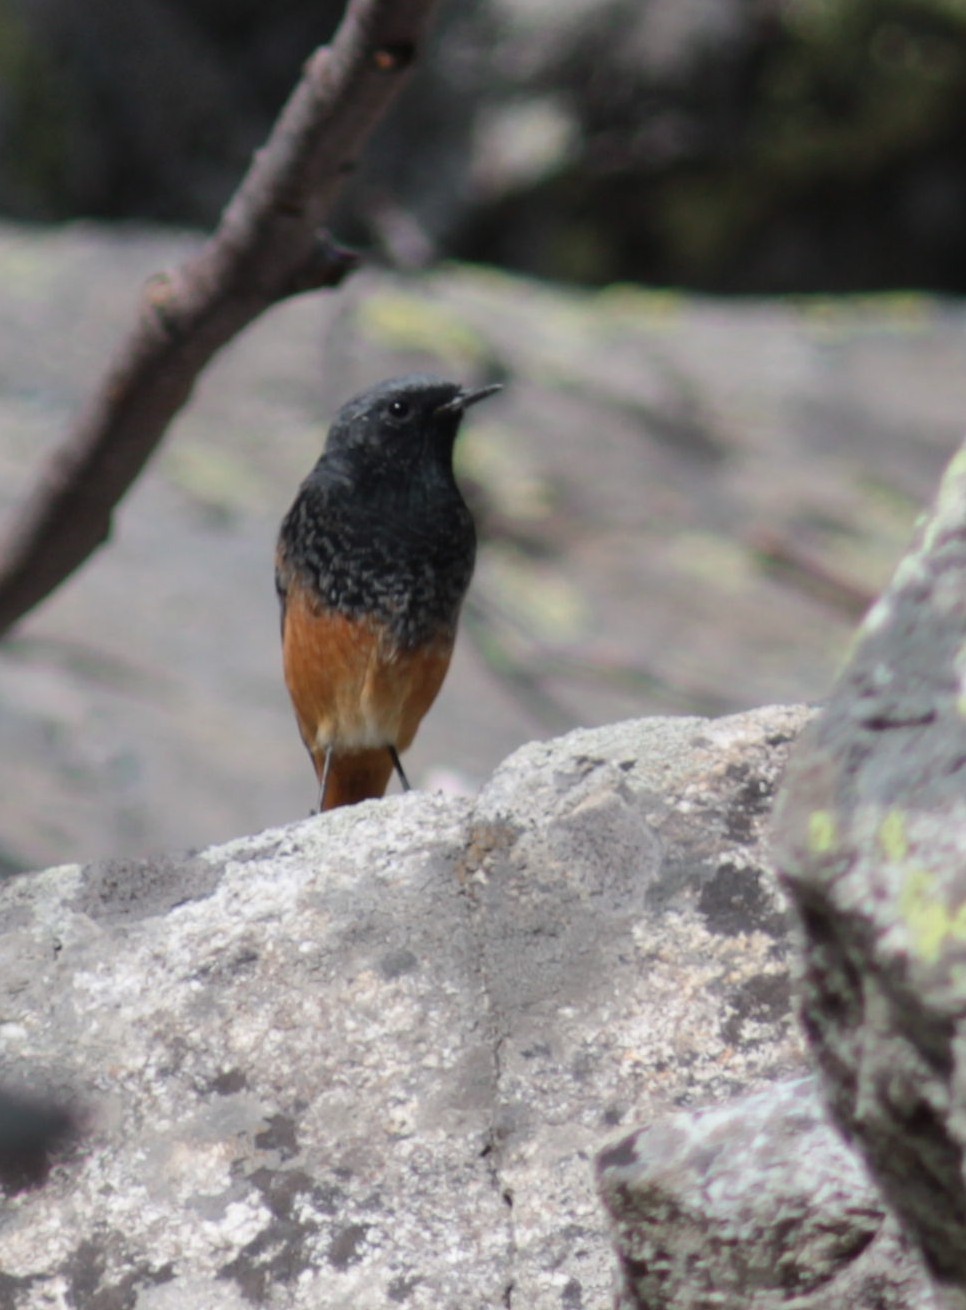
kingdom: Animalia
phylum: Chordata
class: Aves
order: Passeriformes
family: Muscicapidae
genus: Phoenicurus
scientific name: Phoenicurus ochruros
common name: Black redstart
